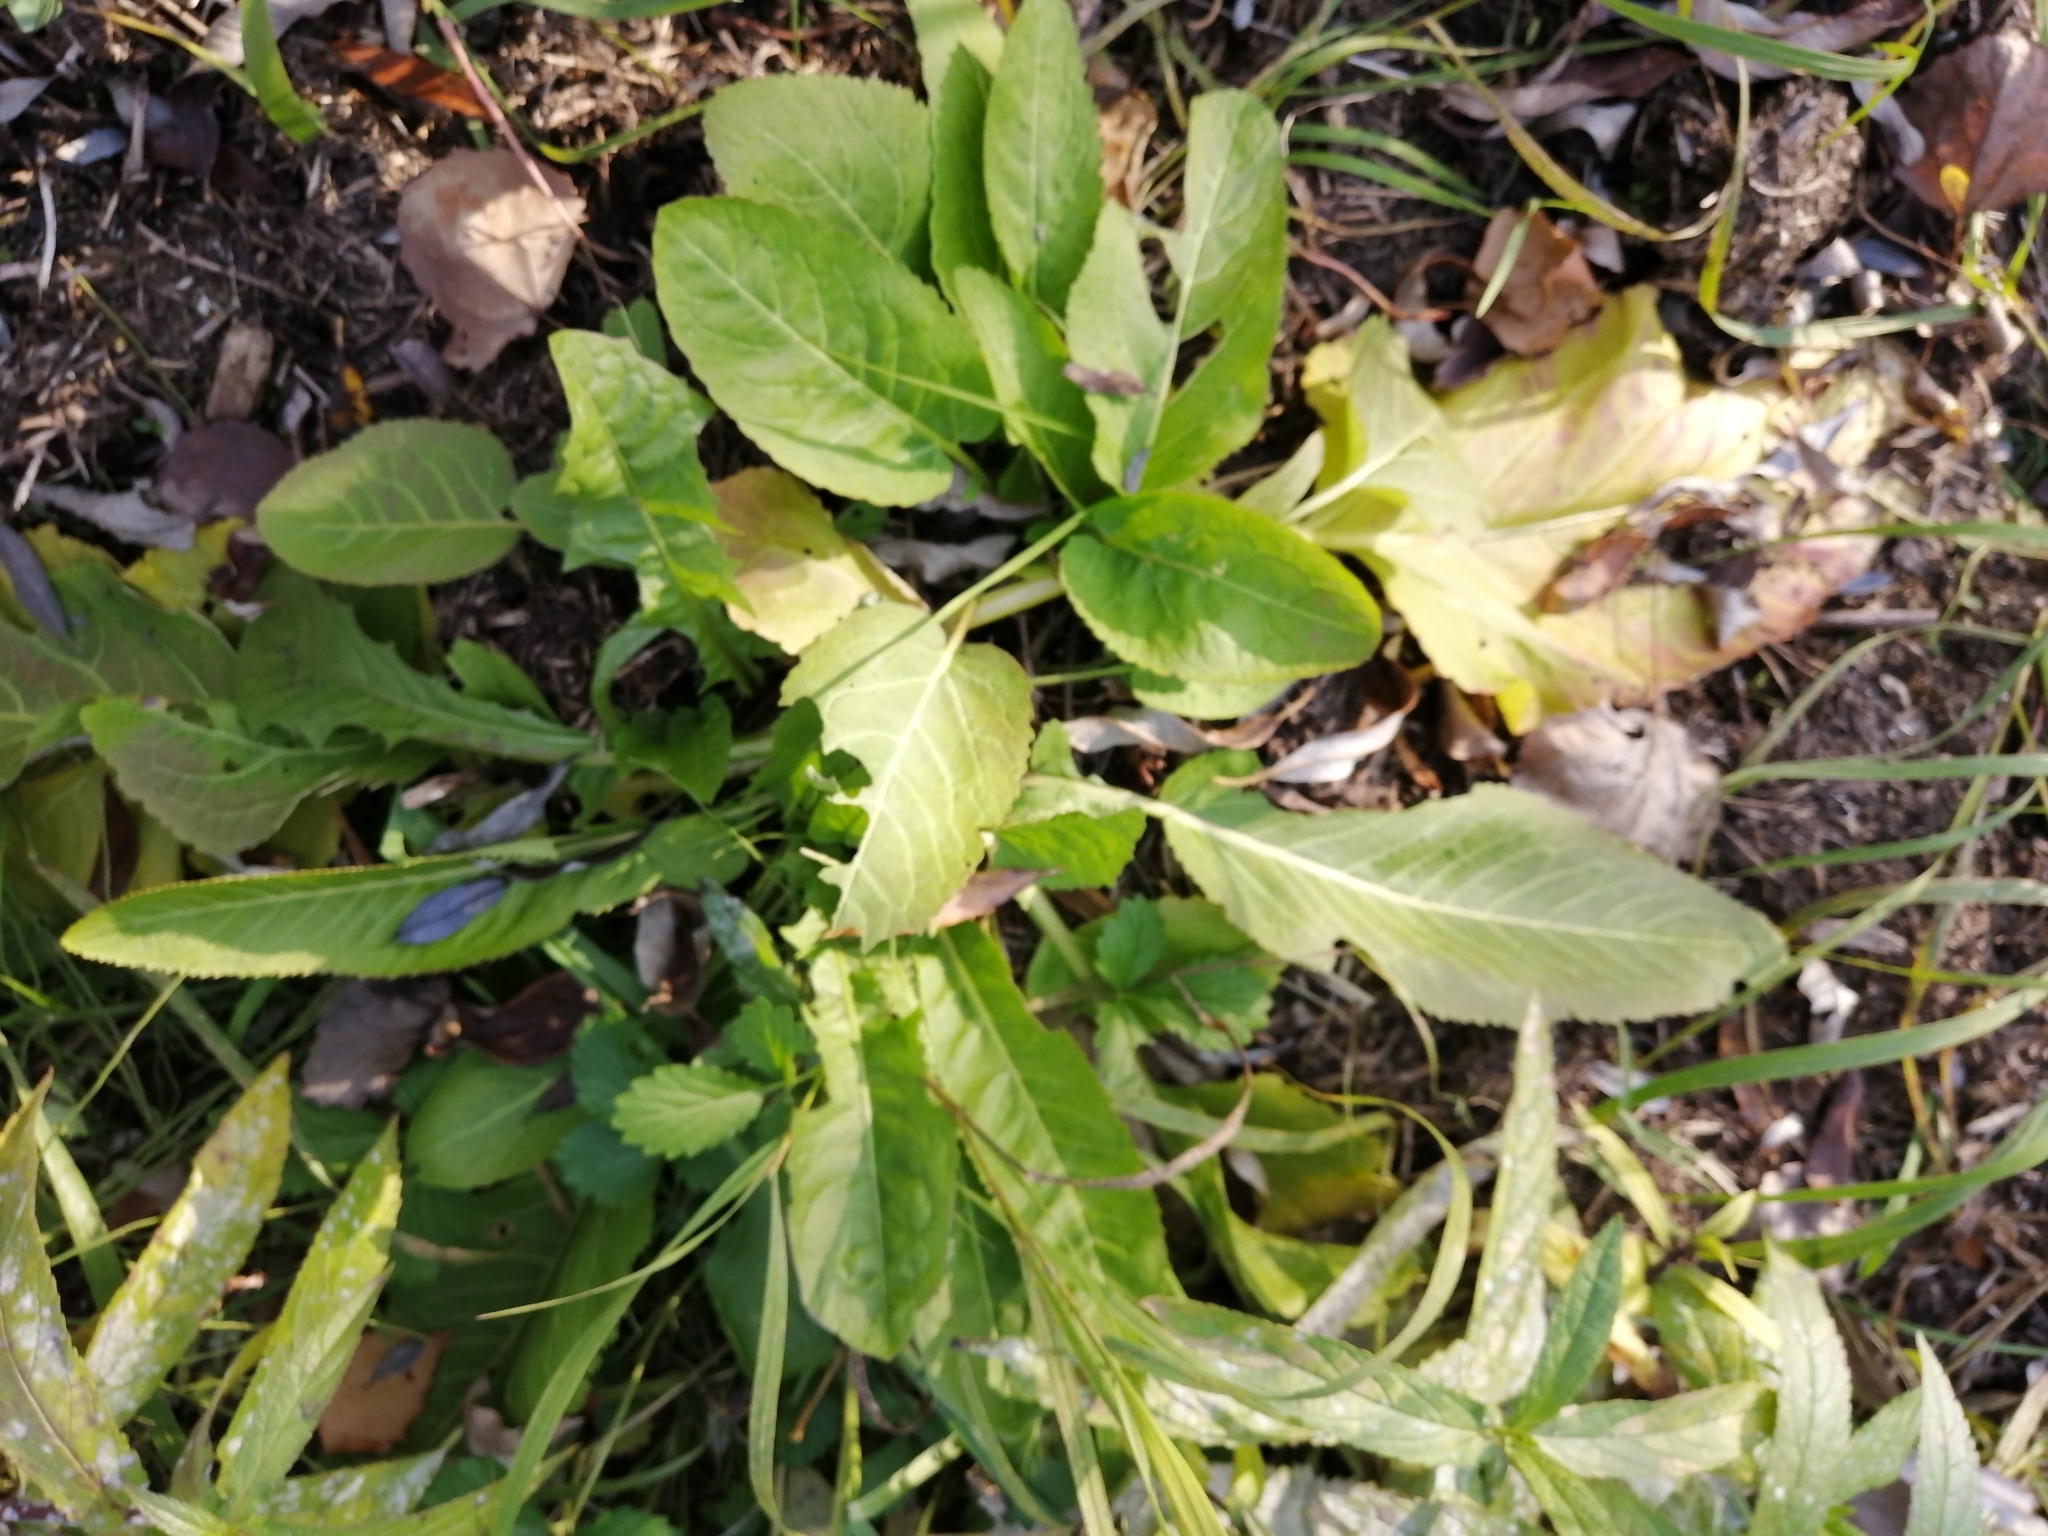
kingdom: Plantae
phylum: Tracheophyta
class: Magnoliopsida
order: Brassicales
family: Brassicaceae
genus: Rorippa
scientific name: Rorippa amphibia
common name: Great yellow-cress
